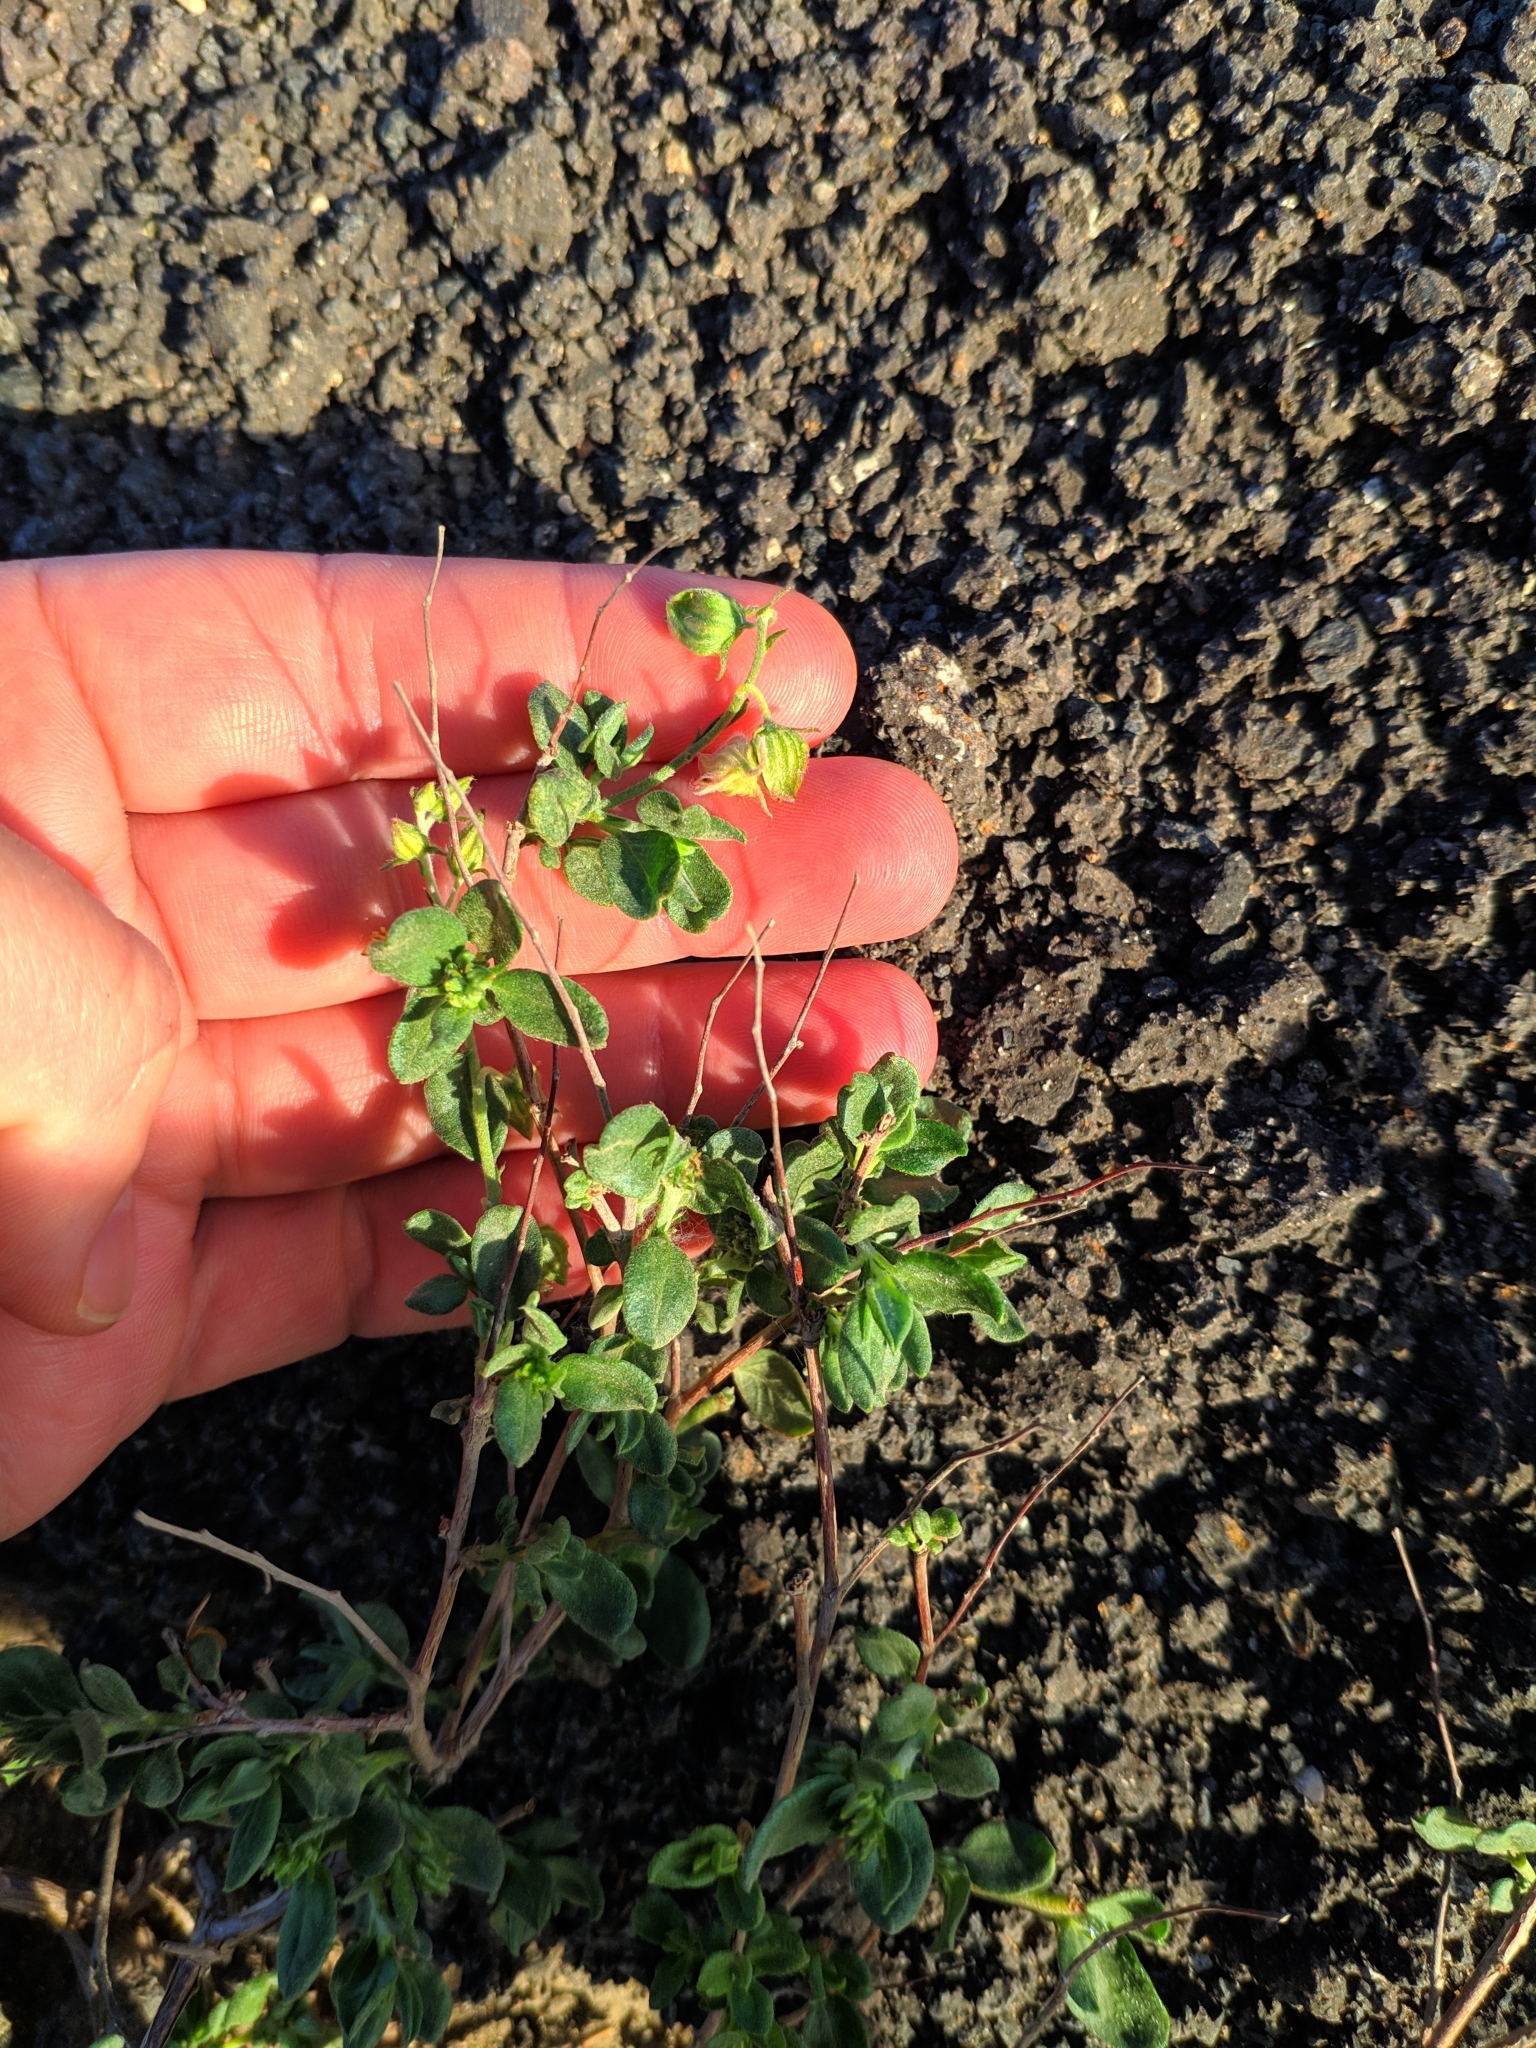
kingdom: Plantae
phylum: Tracheophyta
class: Magnoliopsida
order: Malvales
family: Cistaceae
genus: Helianthemum
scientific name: Helianthemum thymiphyllum
